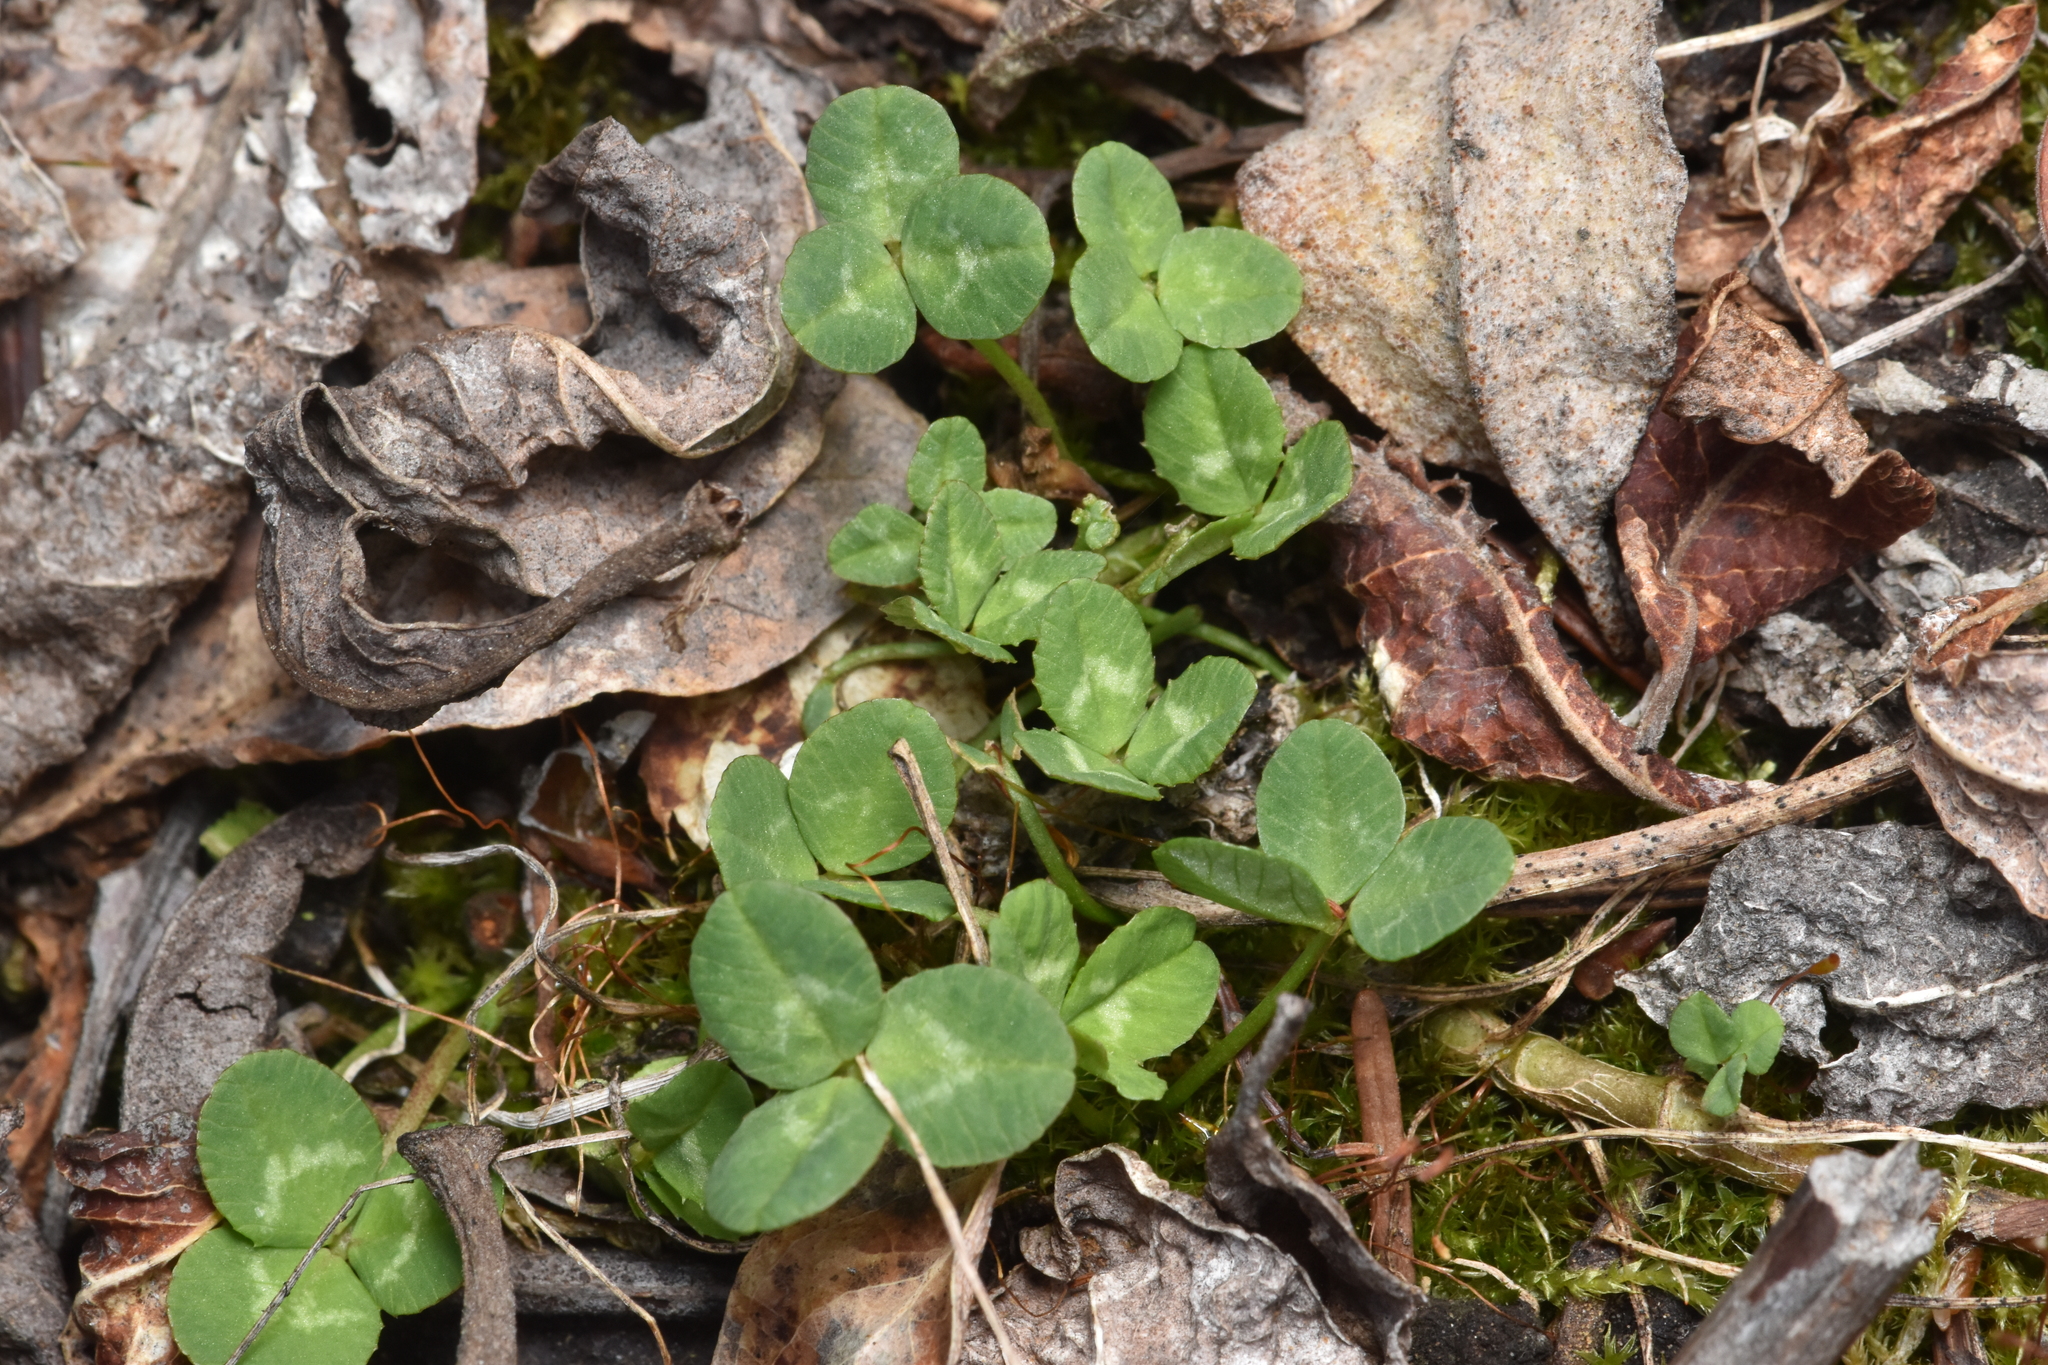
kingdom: Plantae
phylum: Tracheophyta
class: Magnoliopsida
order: Fabales
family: Fabaceae
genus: Trifolium
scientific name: Trifolium repens
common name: White clover
